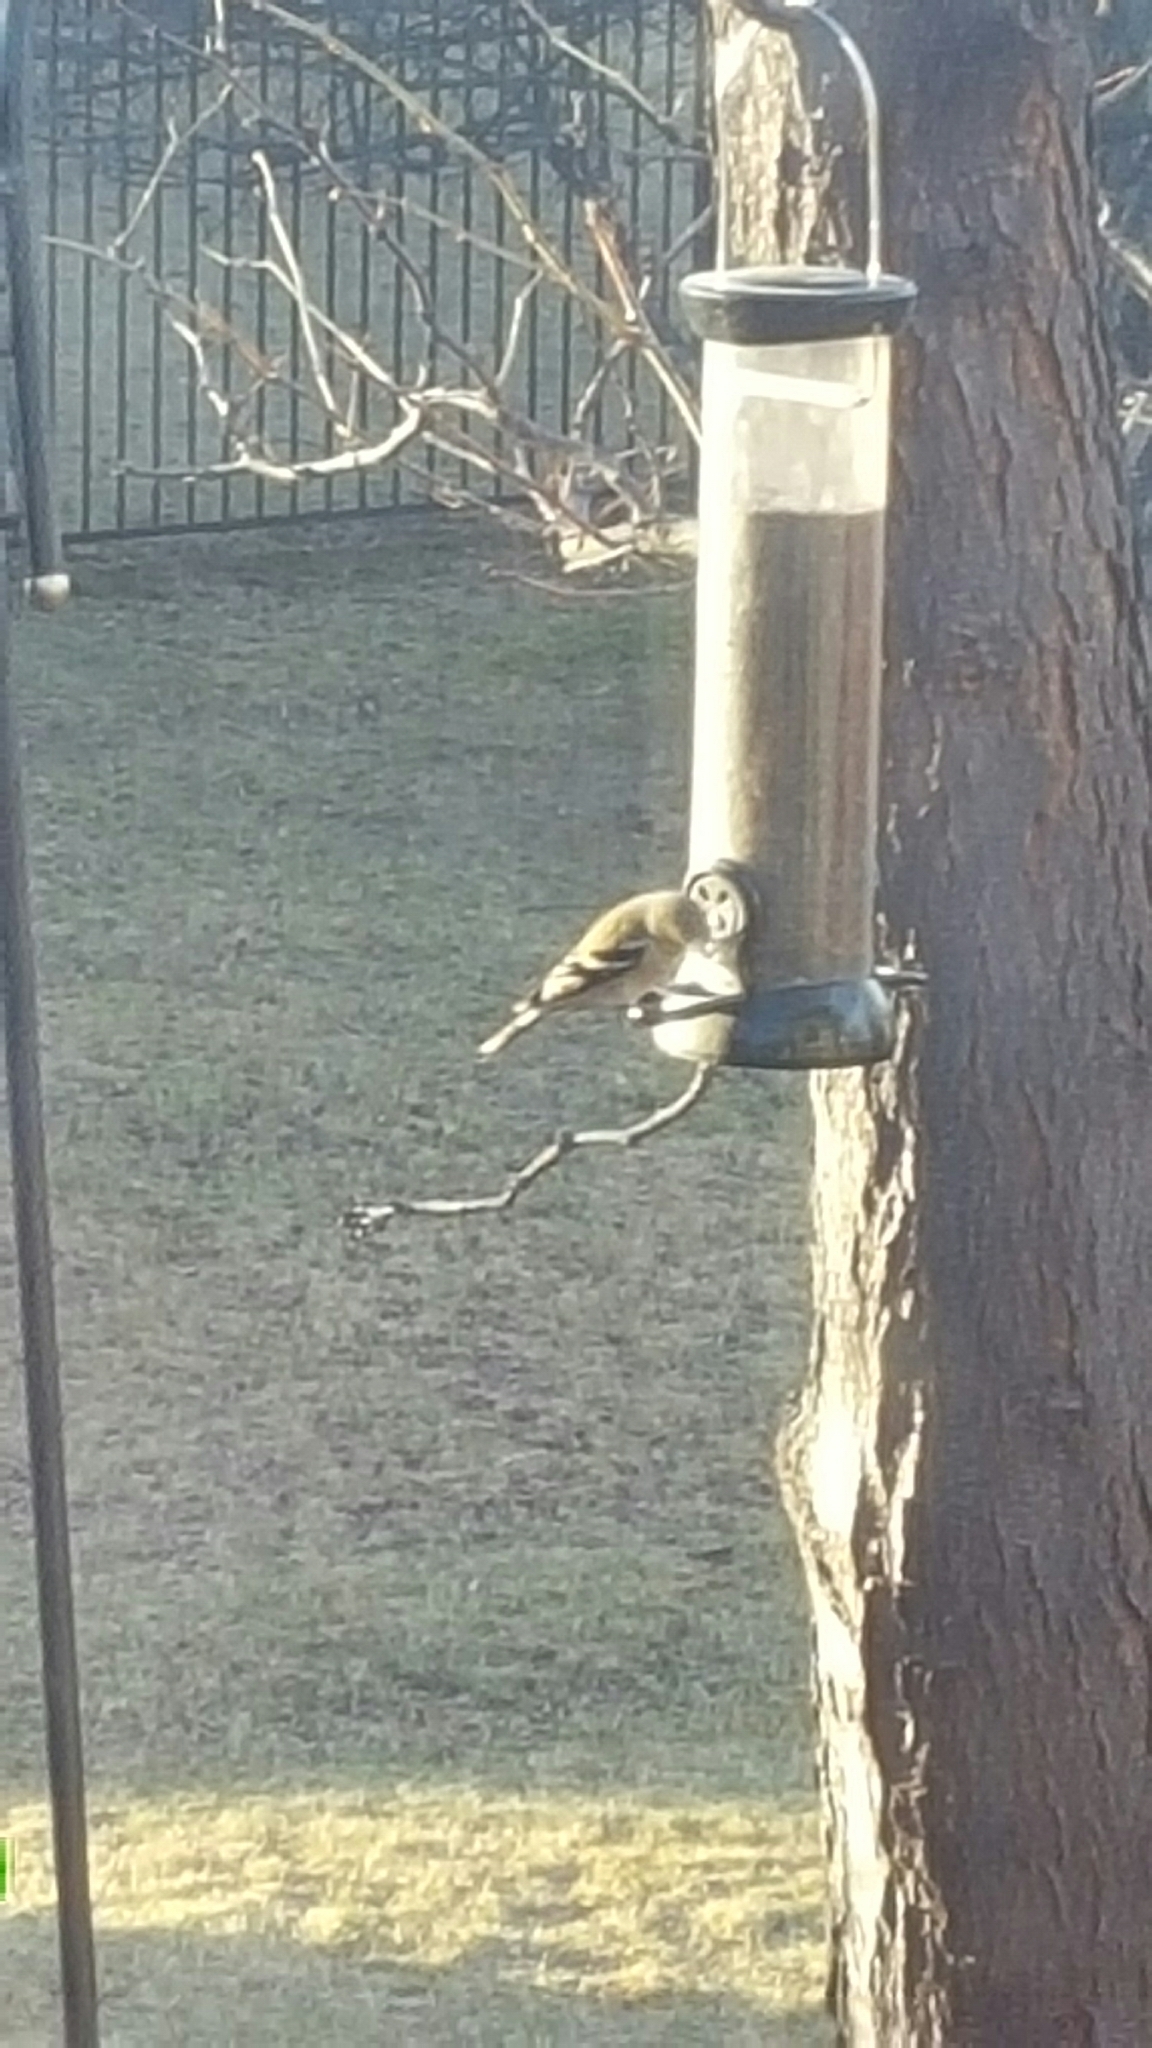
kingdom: Animalia
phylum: Chordata
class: Aves
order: Passeriformes
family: Fringillidae
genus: Spinus
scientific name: Spinus tristis
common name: American goldfinch
